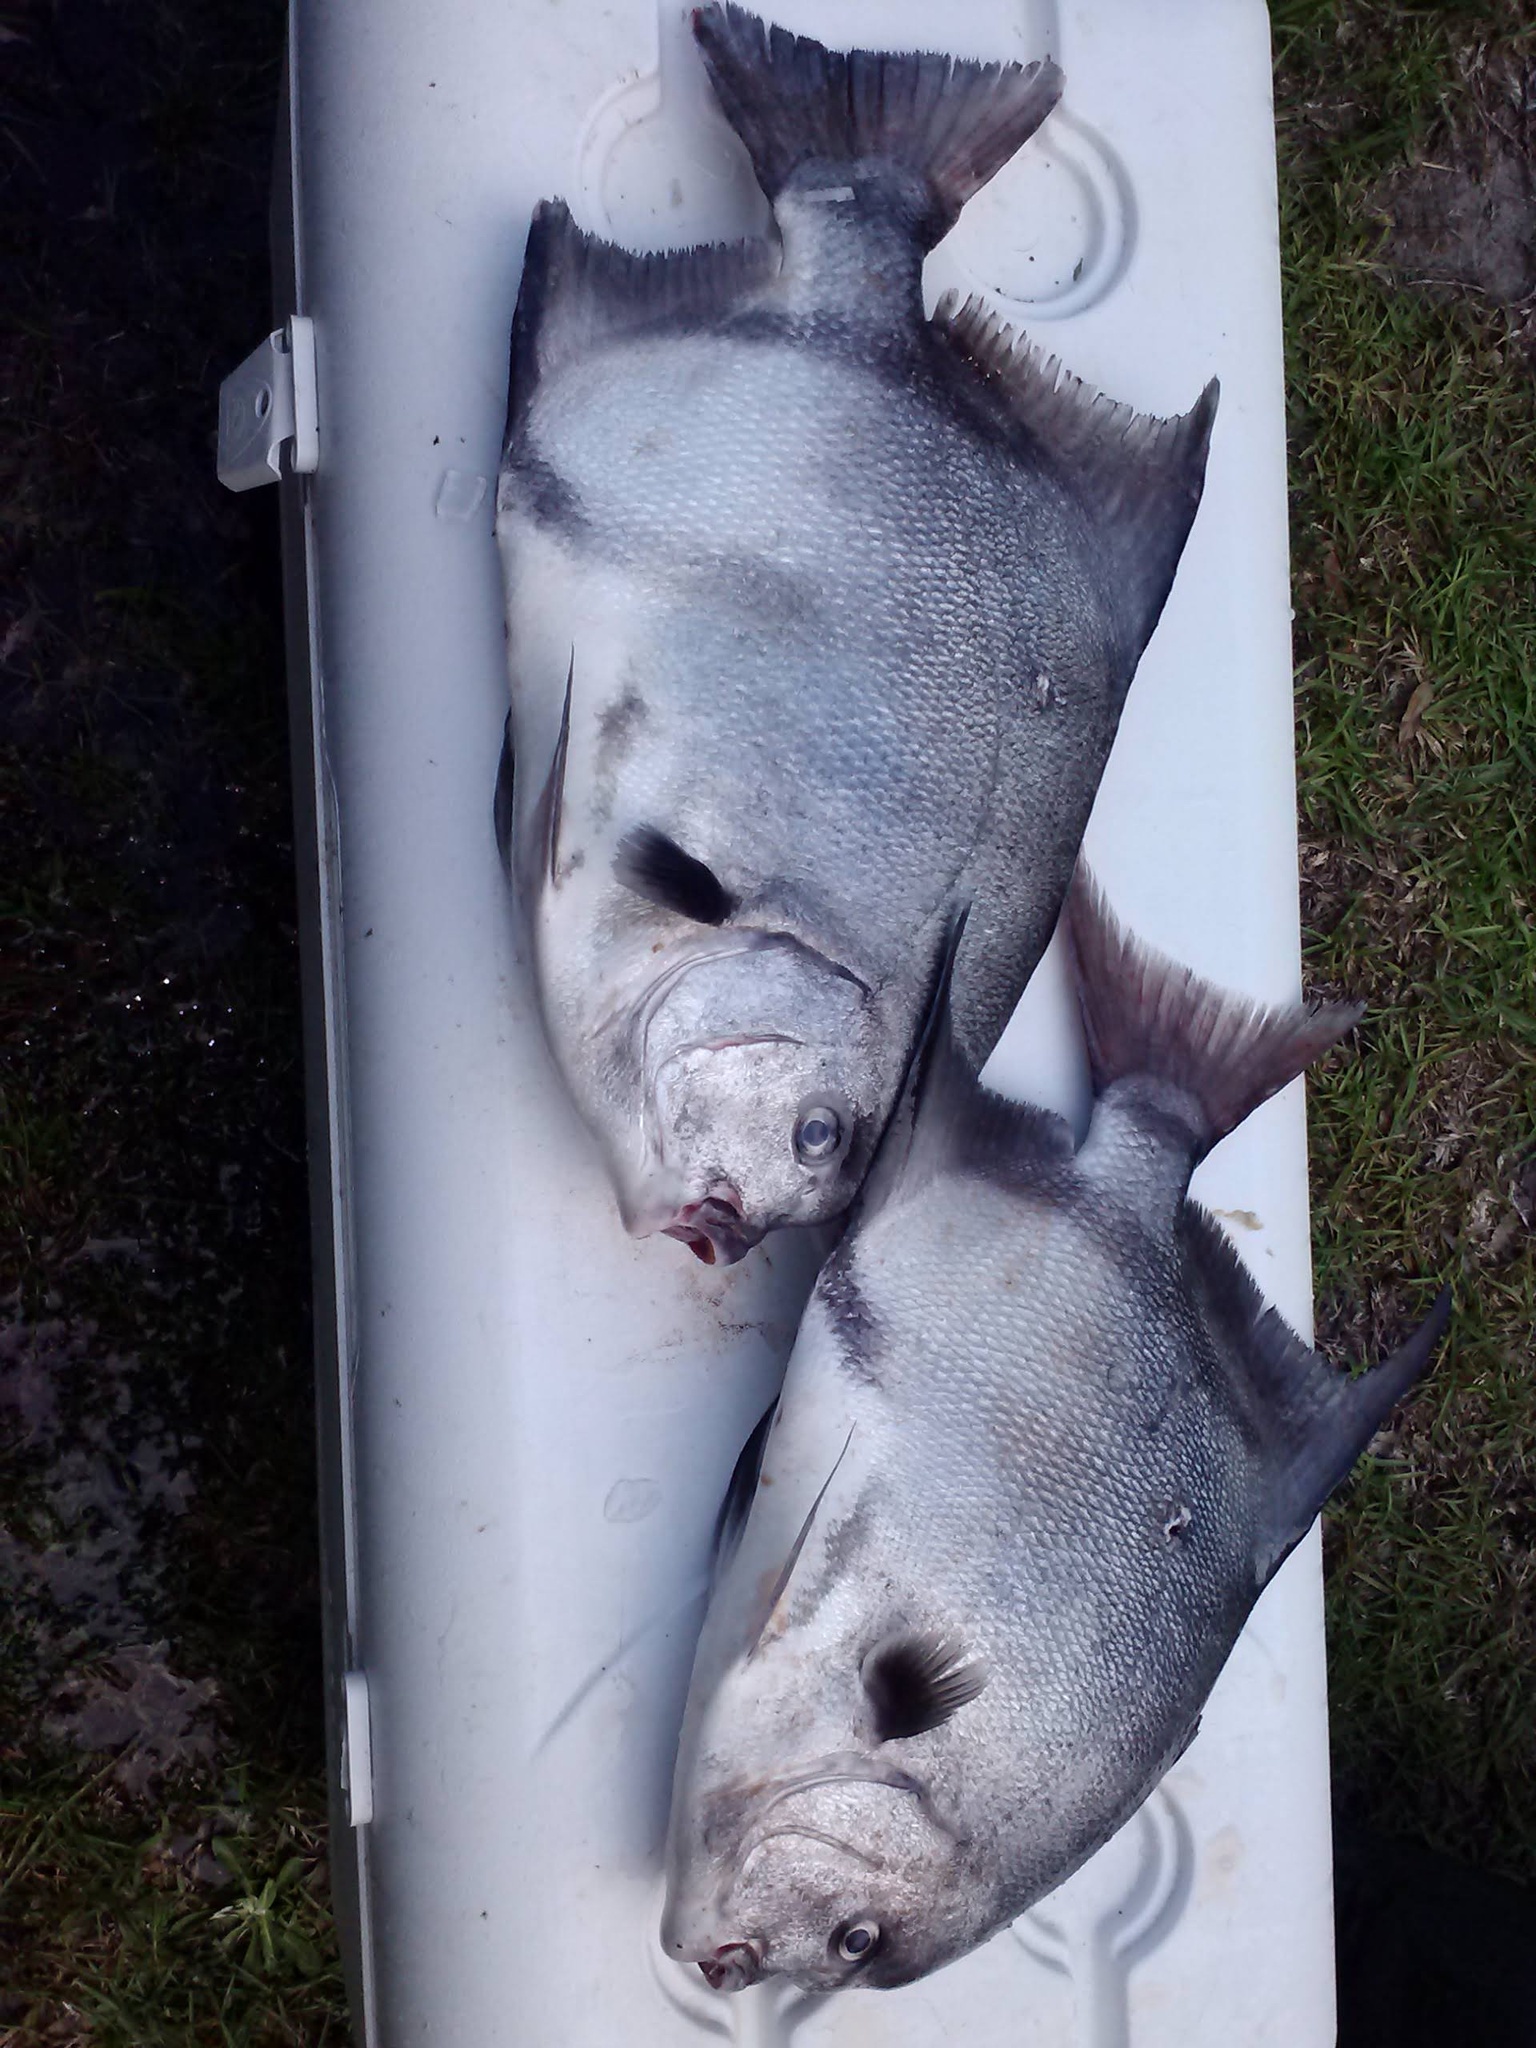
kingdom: Animalia
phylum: Chordata
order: Perciformes
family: Ephippidae
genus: Chaetodipterus
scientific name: Chaetodipterus faber
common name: Ocean cobbler
